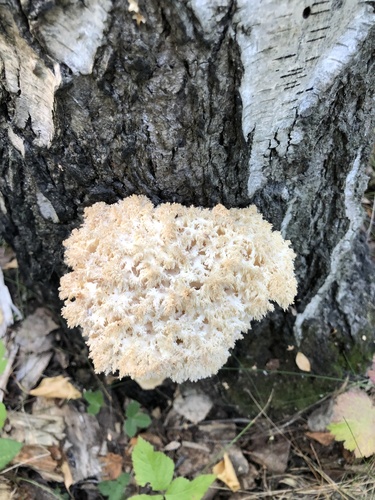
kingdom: Fungi
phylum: Basidiomycota
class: Agaricomycetes
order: Russulales
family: Hericiaceae
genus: Hericium
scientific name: Hericium coralloides
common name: Coral tooth
